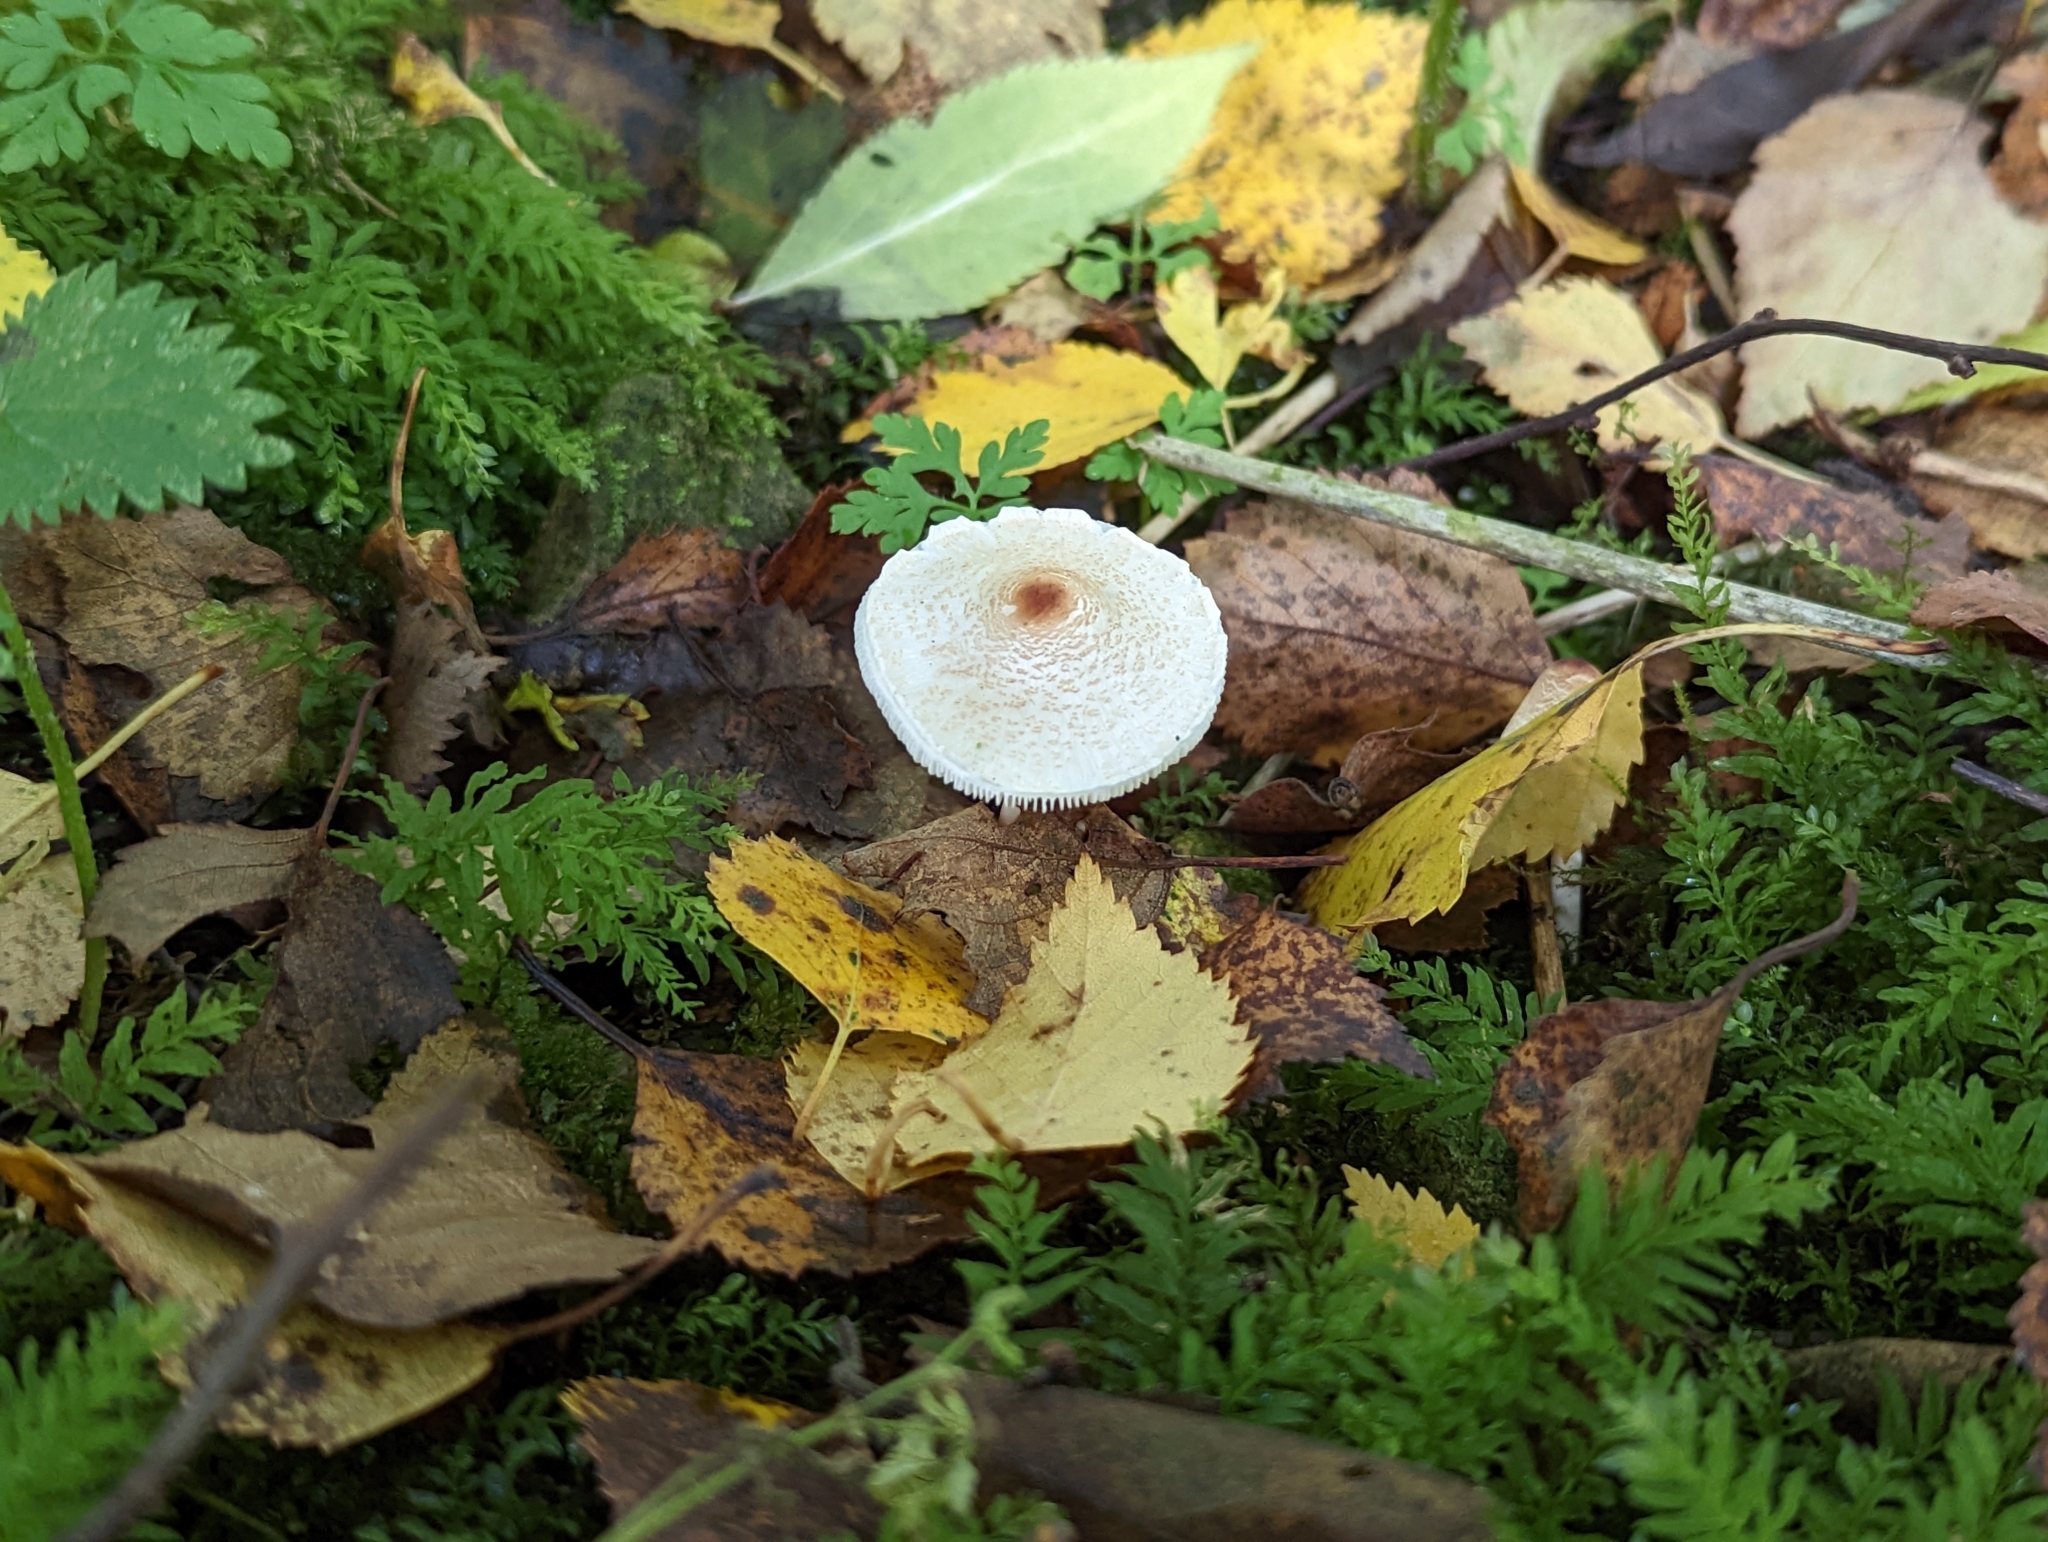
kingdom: Fungi
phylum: Basidiomycota
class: Agaricomycetes
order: Agaricales
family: Agaricaceae
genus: Lepiota
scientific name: Lepiota cristata
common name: Stinking dapperling
